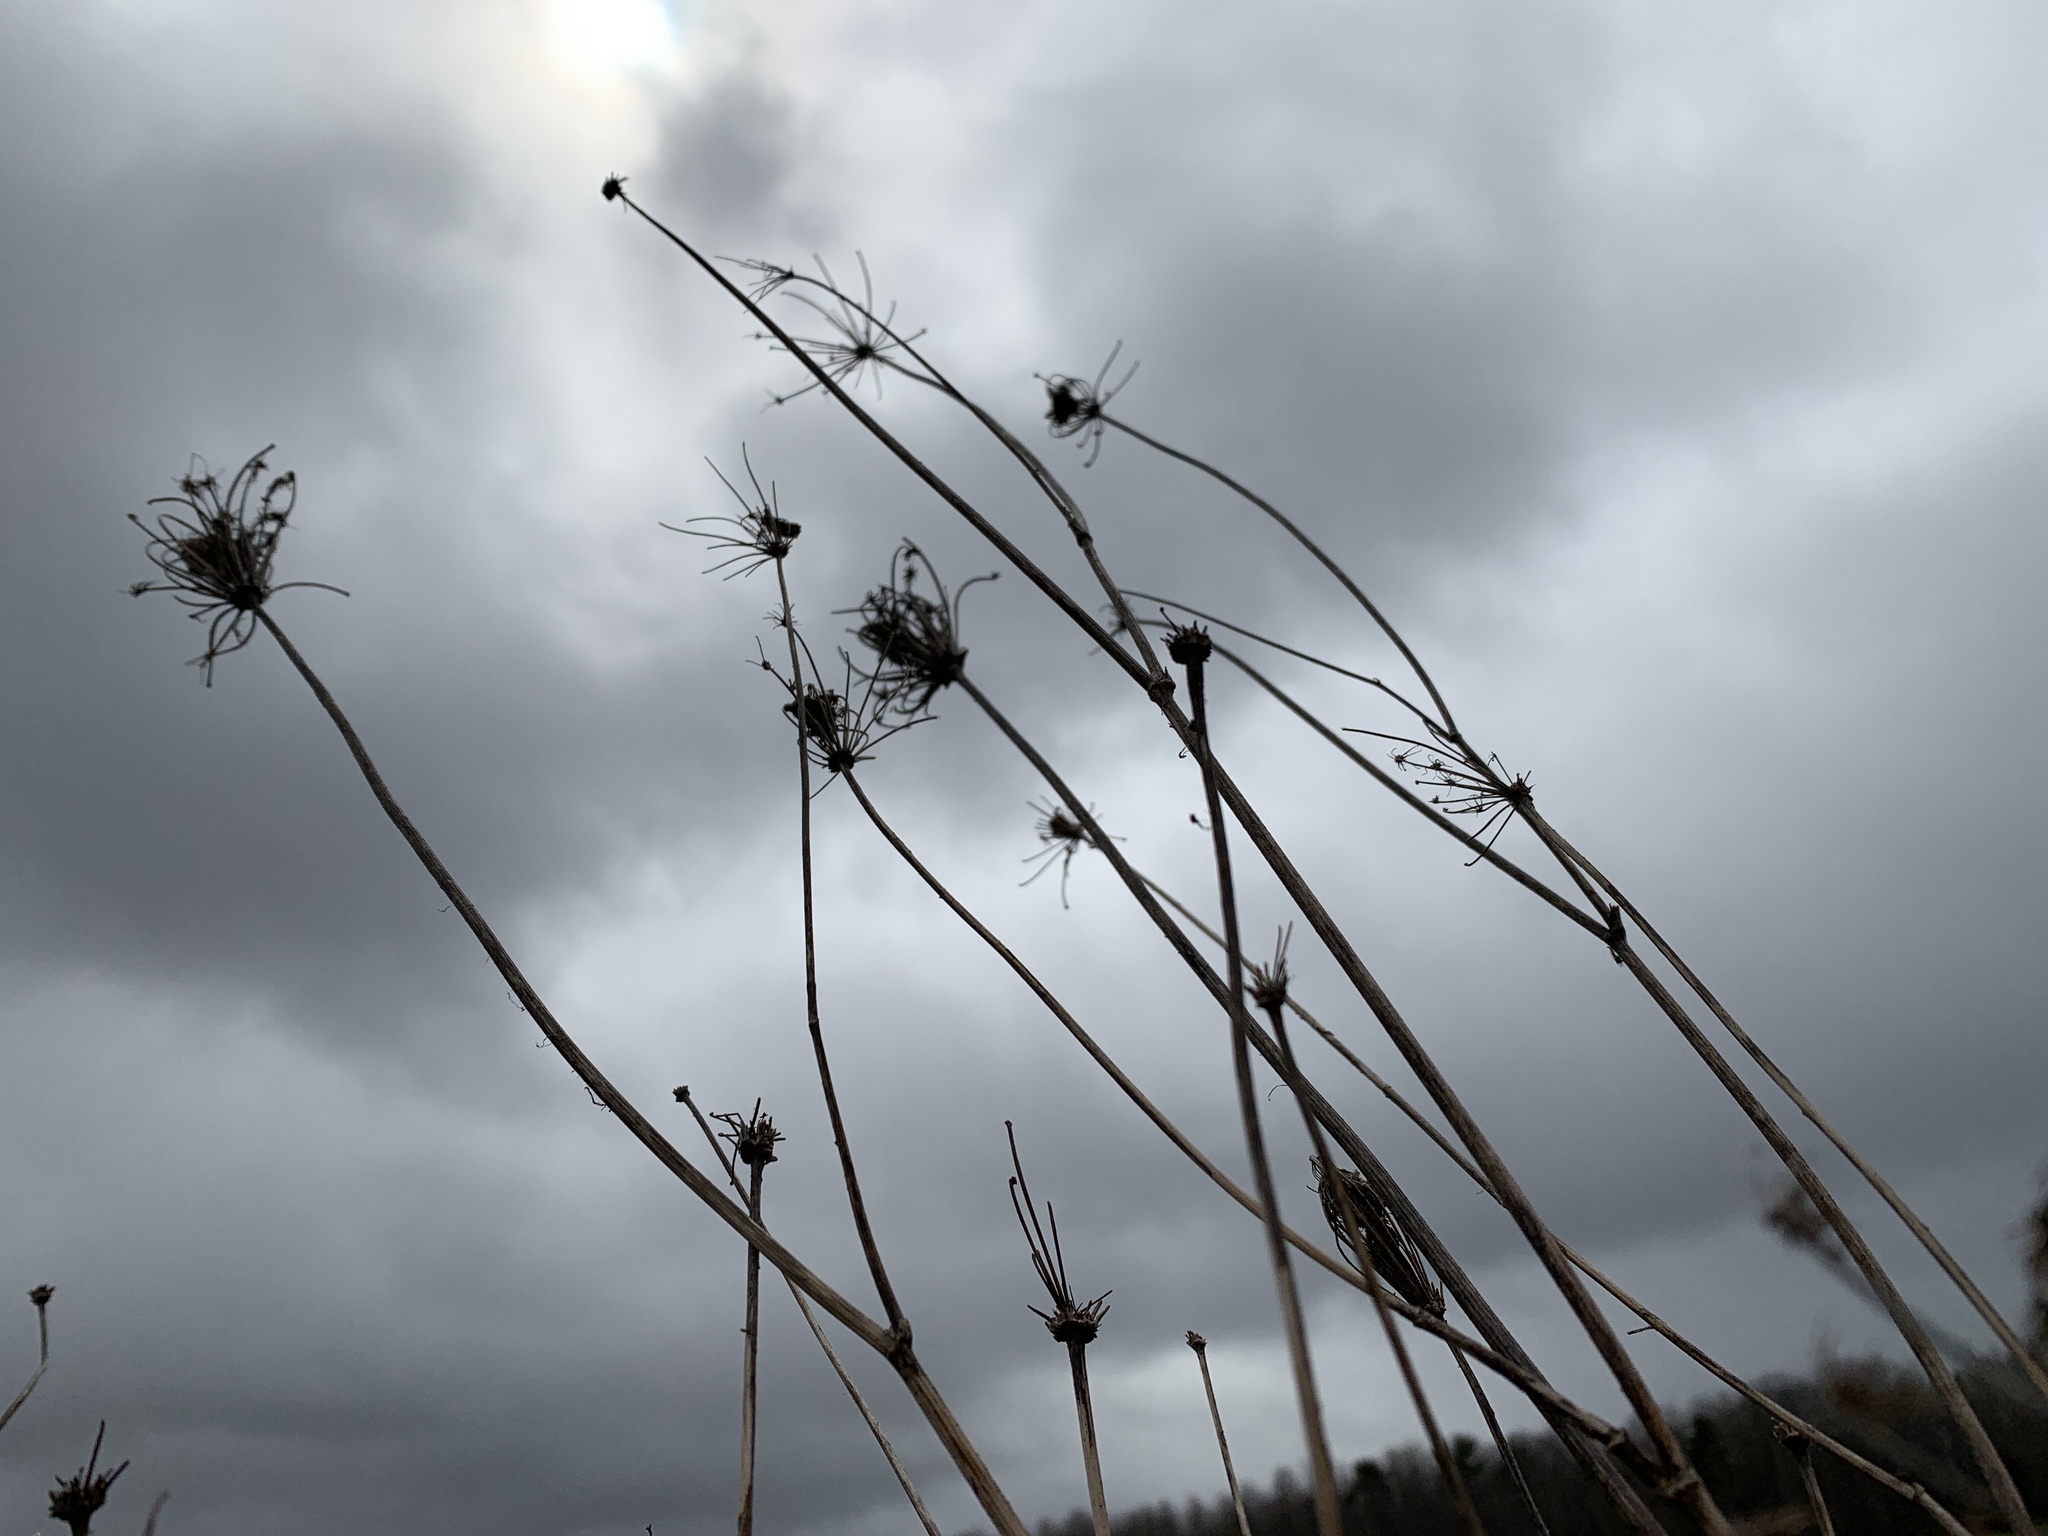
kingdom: Plantae
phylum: Tracheophyta
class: Magnoliopsida
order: Apiales
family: Apiaceae
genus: Daucus
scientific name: Daucus carota
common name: Wild carrot
